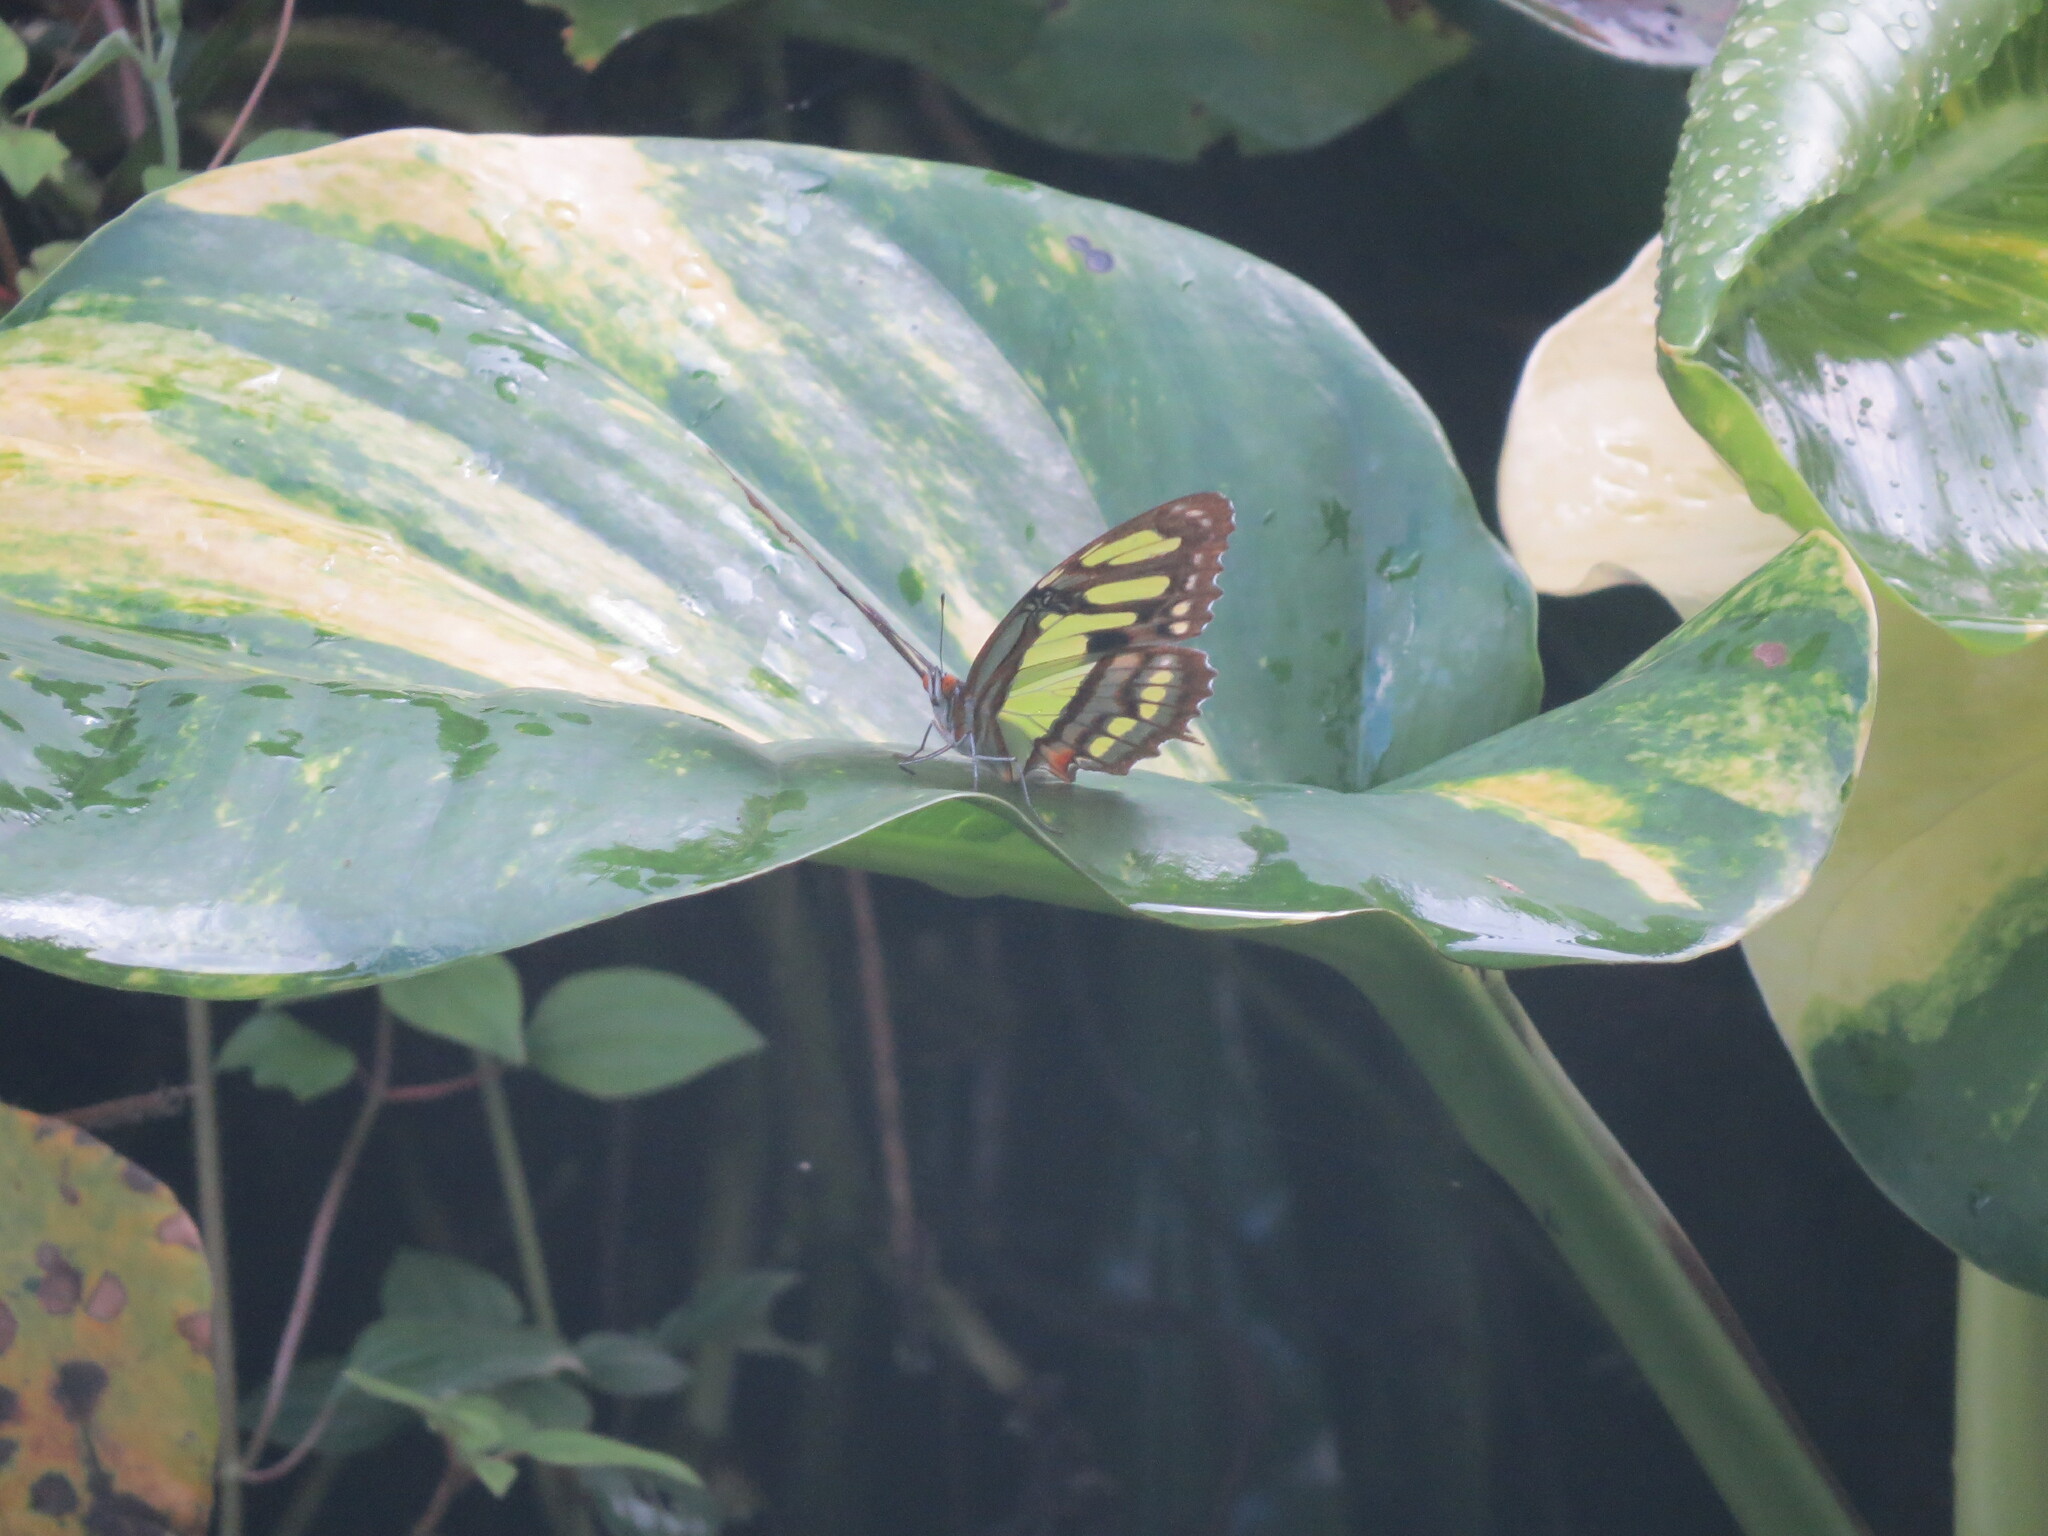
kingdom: Animalia
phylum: Arthropoda
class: Insecta
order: Lepidoptera
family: Nymphalidae
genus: Siproeta
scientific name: Siproeta stelenes
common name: Malachite
